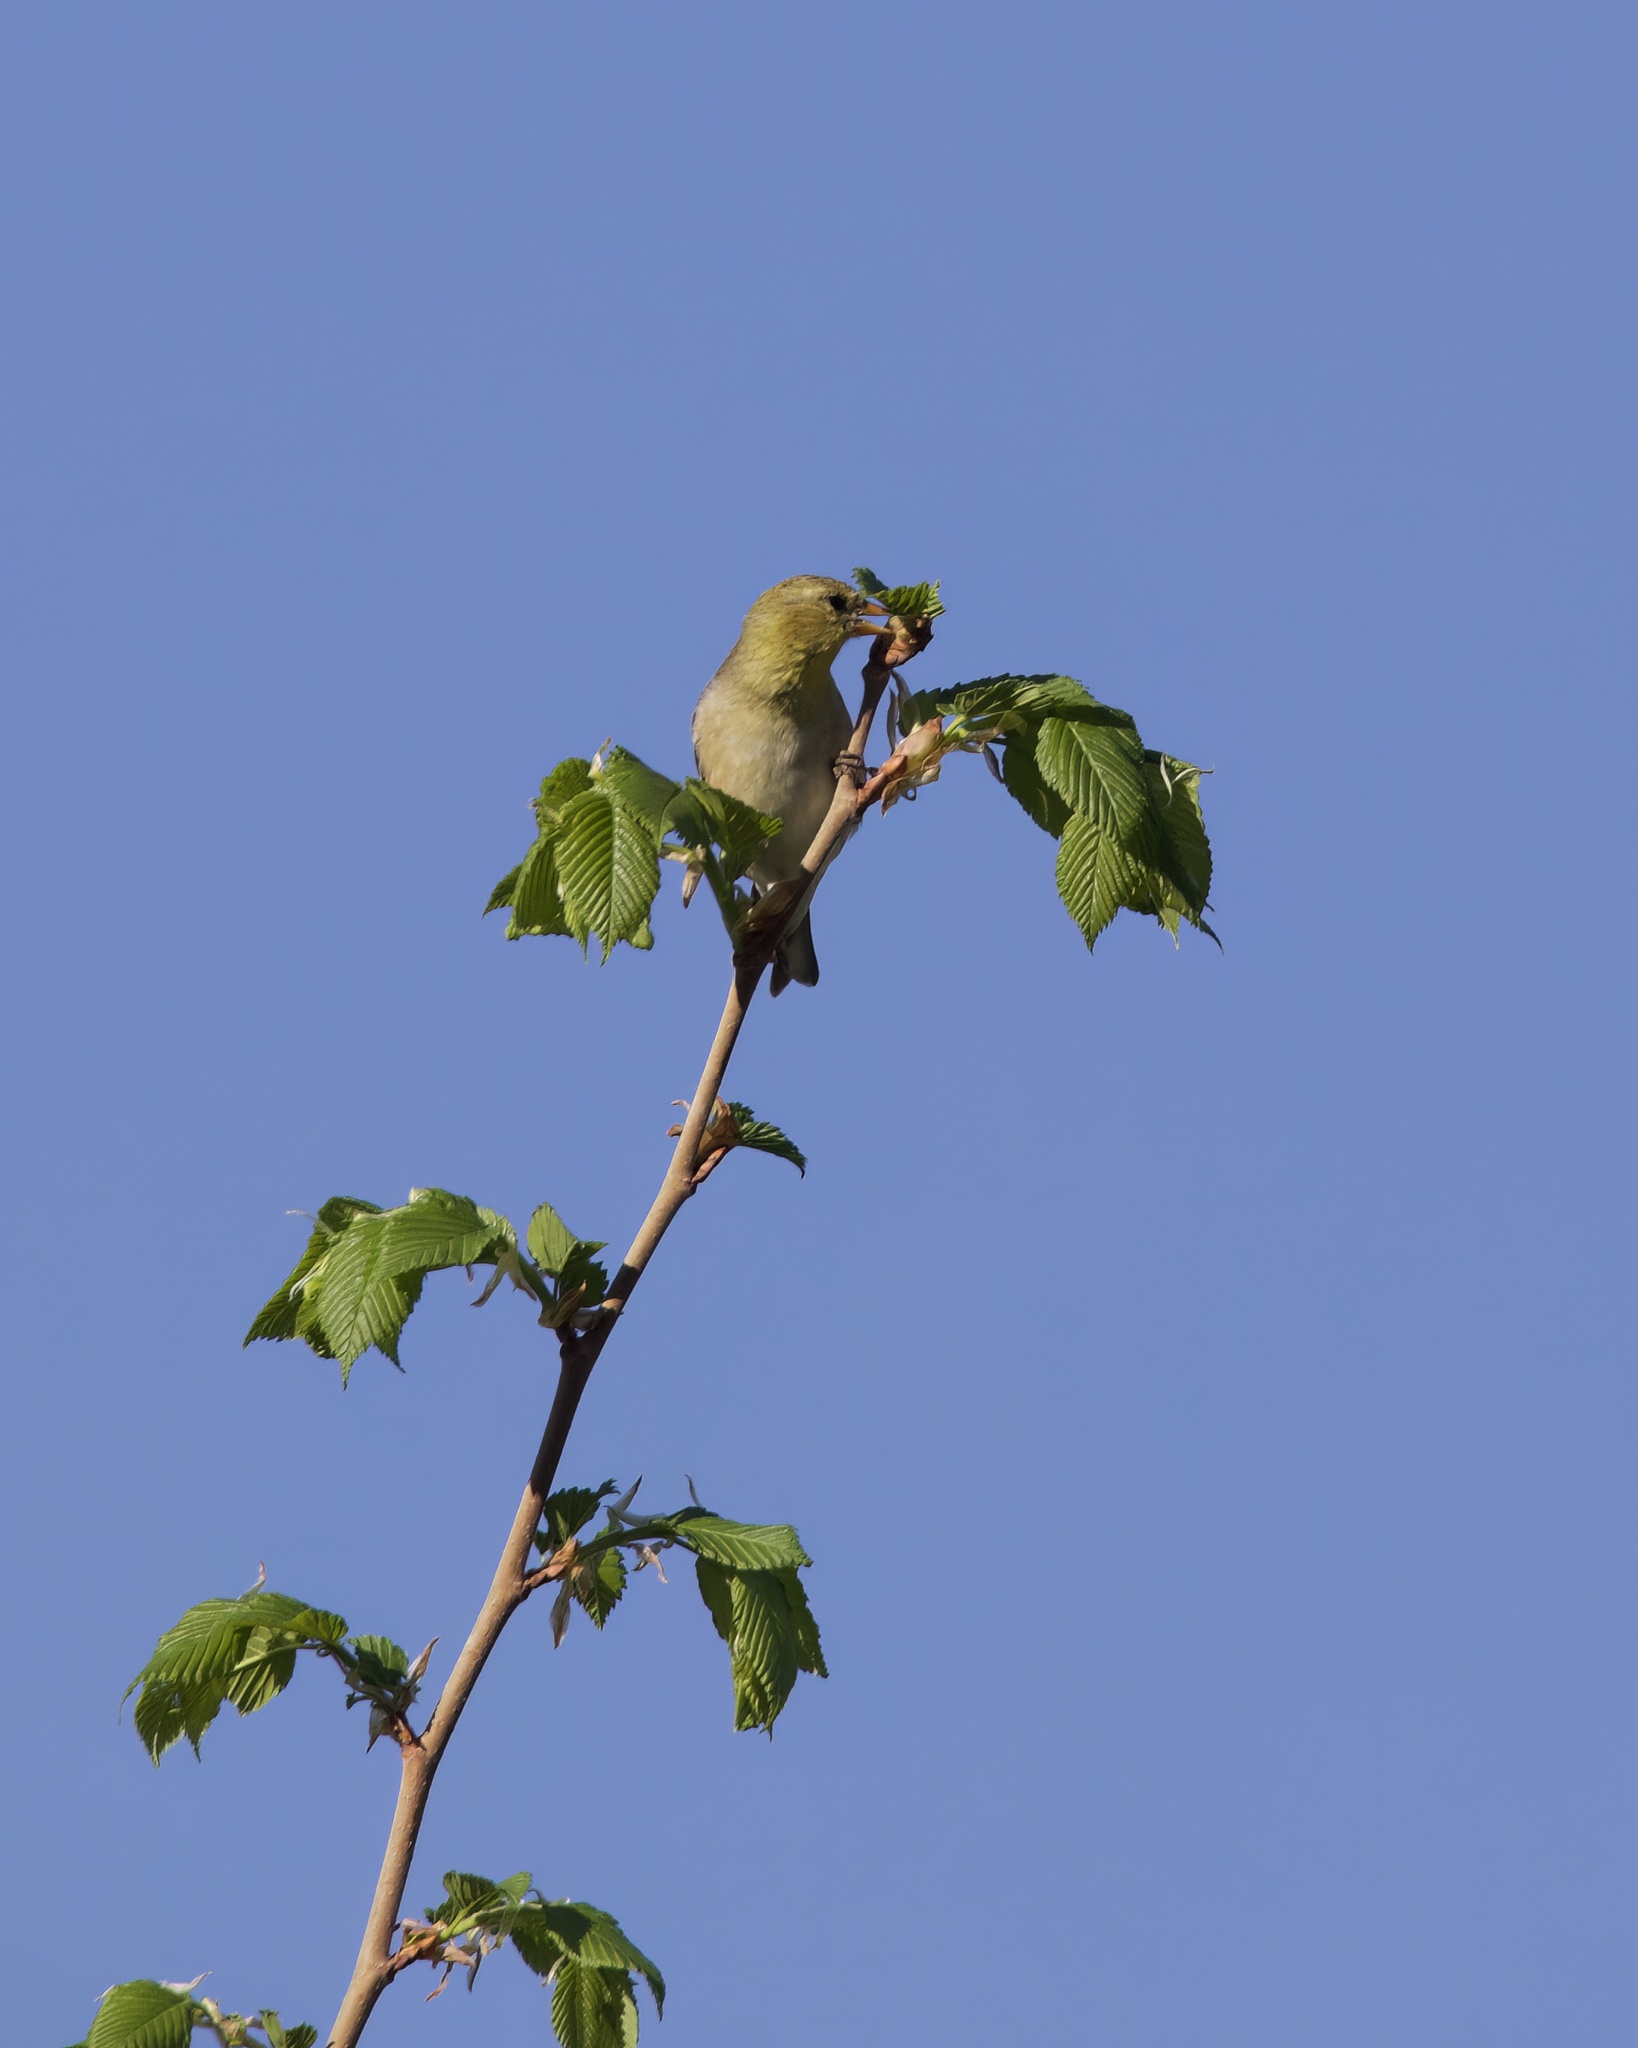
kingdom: Animalia
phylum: Chordata
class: Aves
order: Passeriformes
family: Fringillidae
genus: Spinus
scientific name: Spinus tristis
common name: American goldfinch
